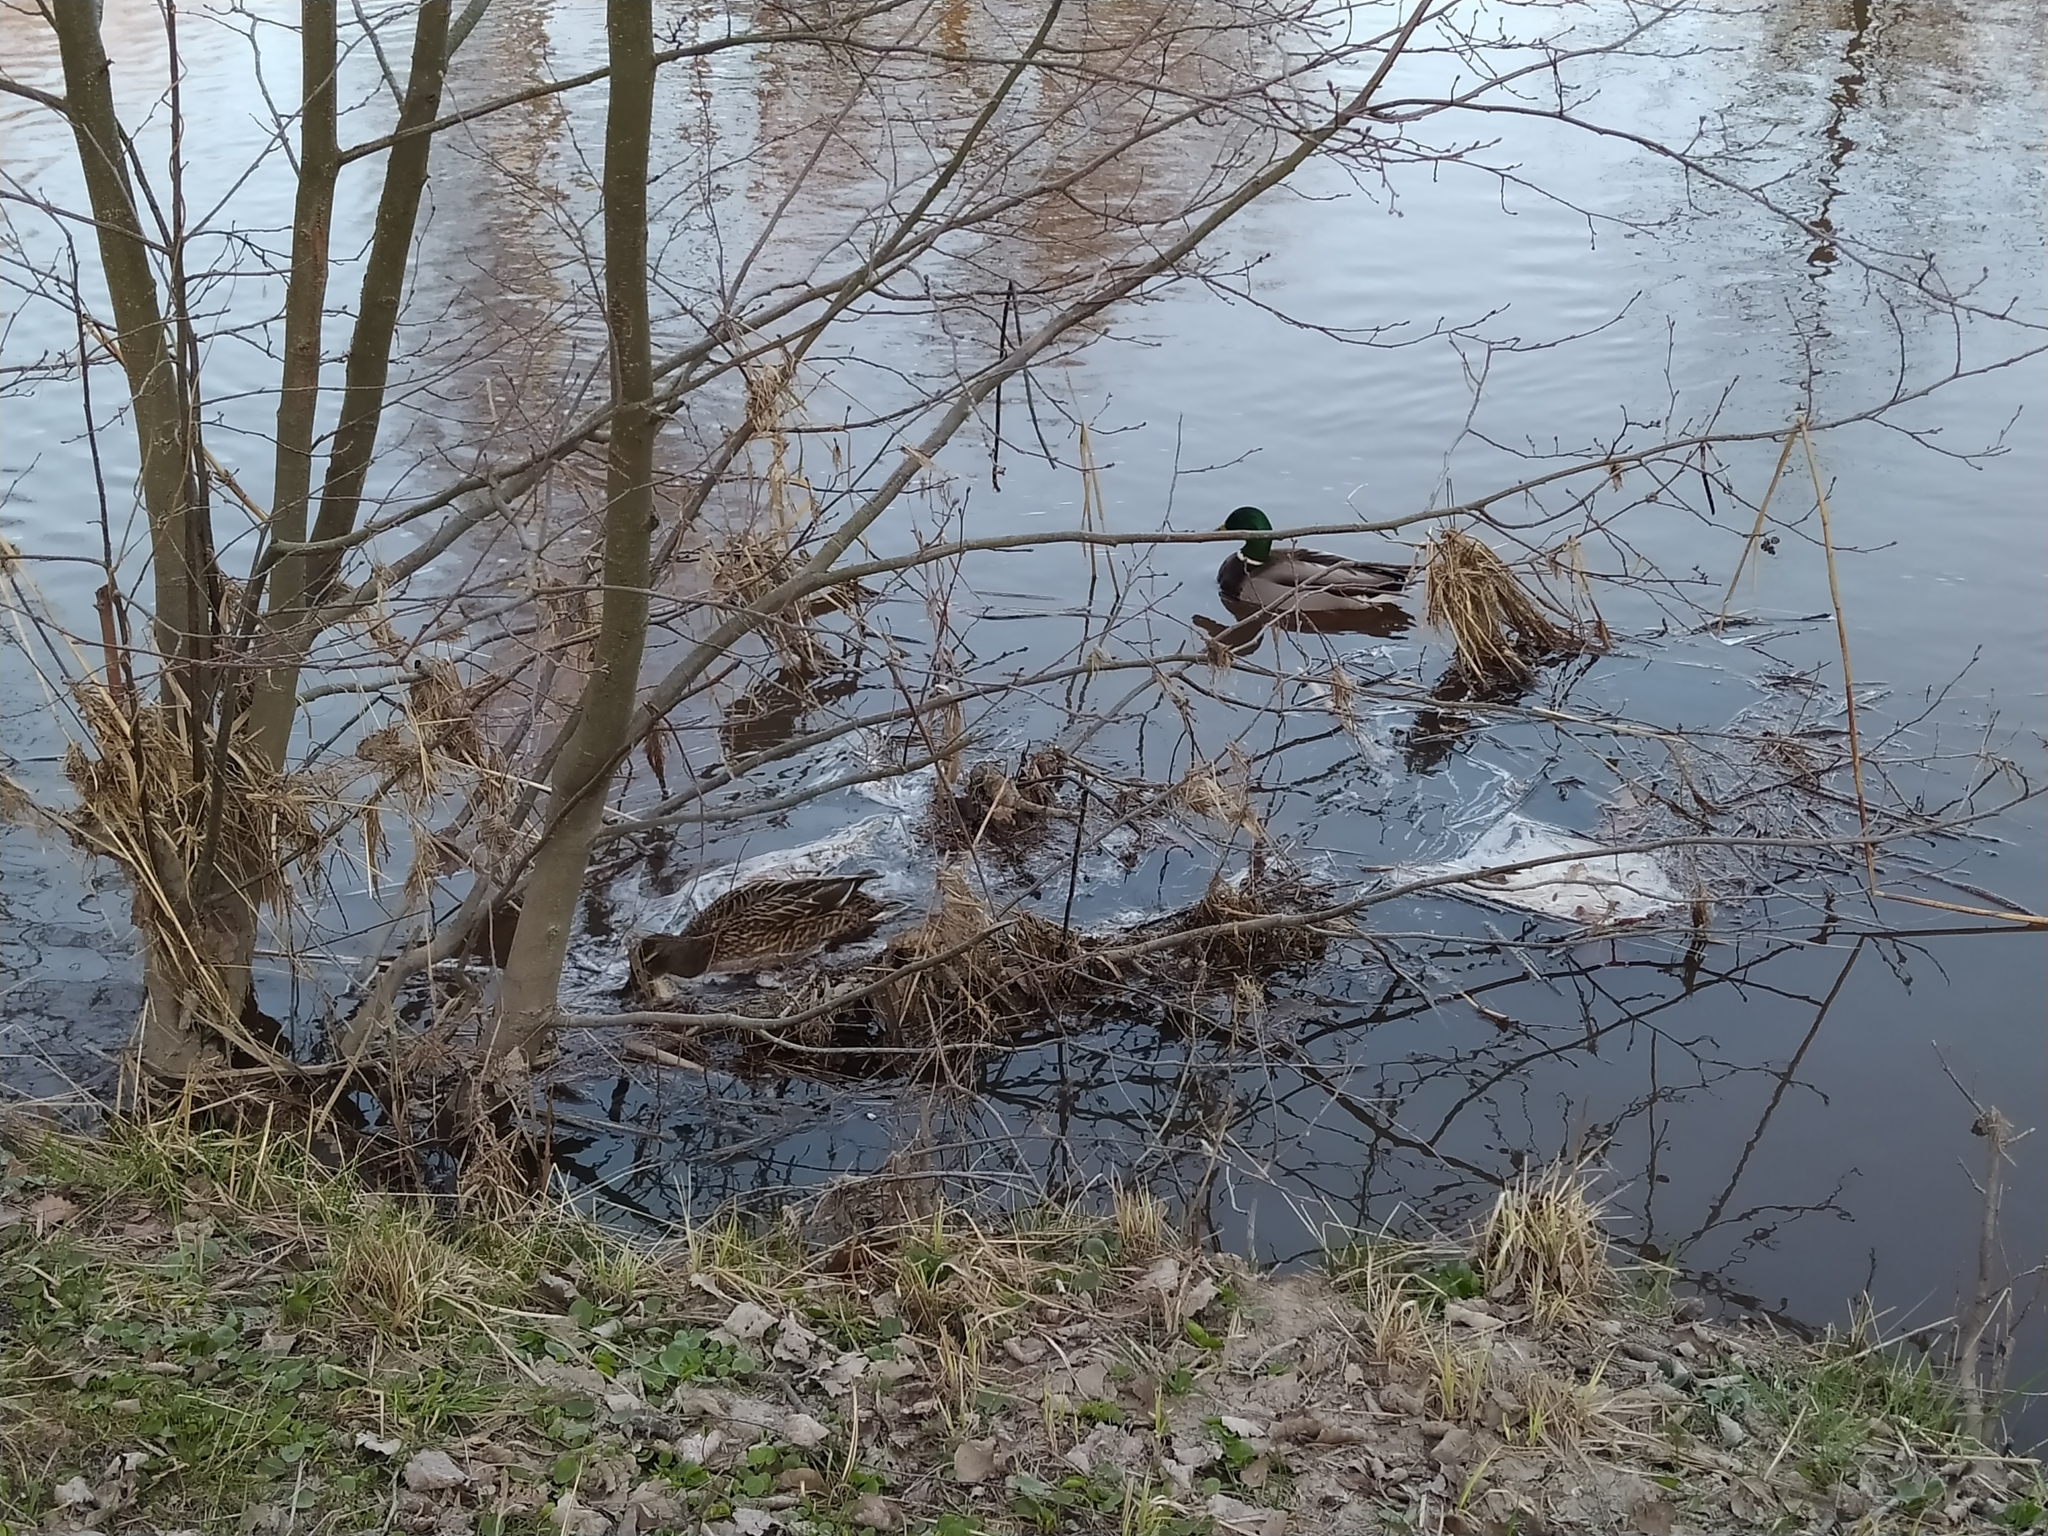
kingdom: Animalia
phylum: Chordata
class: Aves
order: Anseriformes
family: Anatidae
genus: Anas
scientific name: Anas platyrhynchos
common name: Mallard
